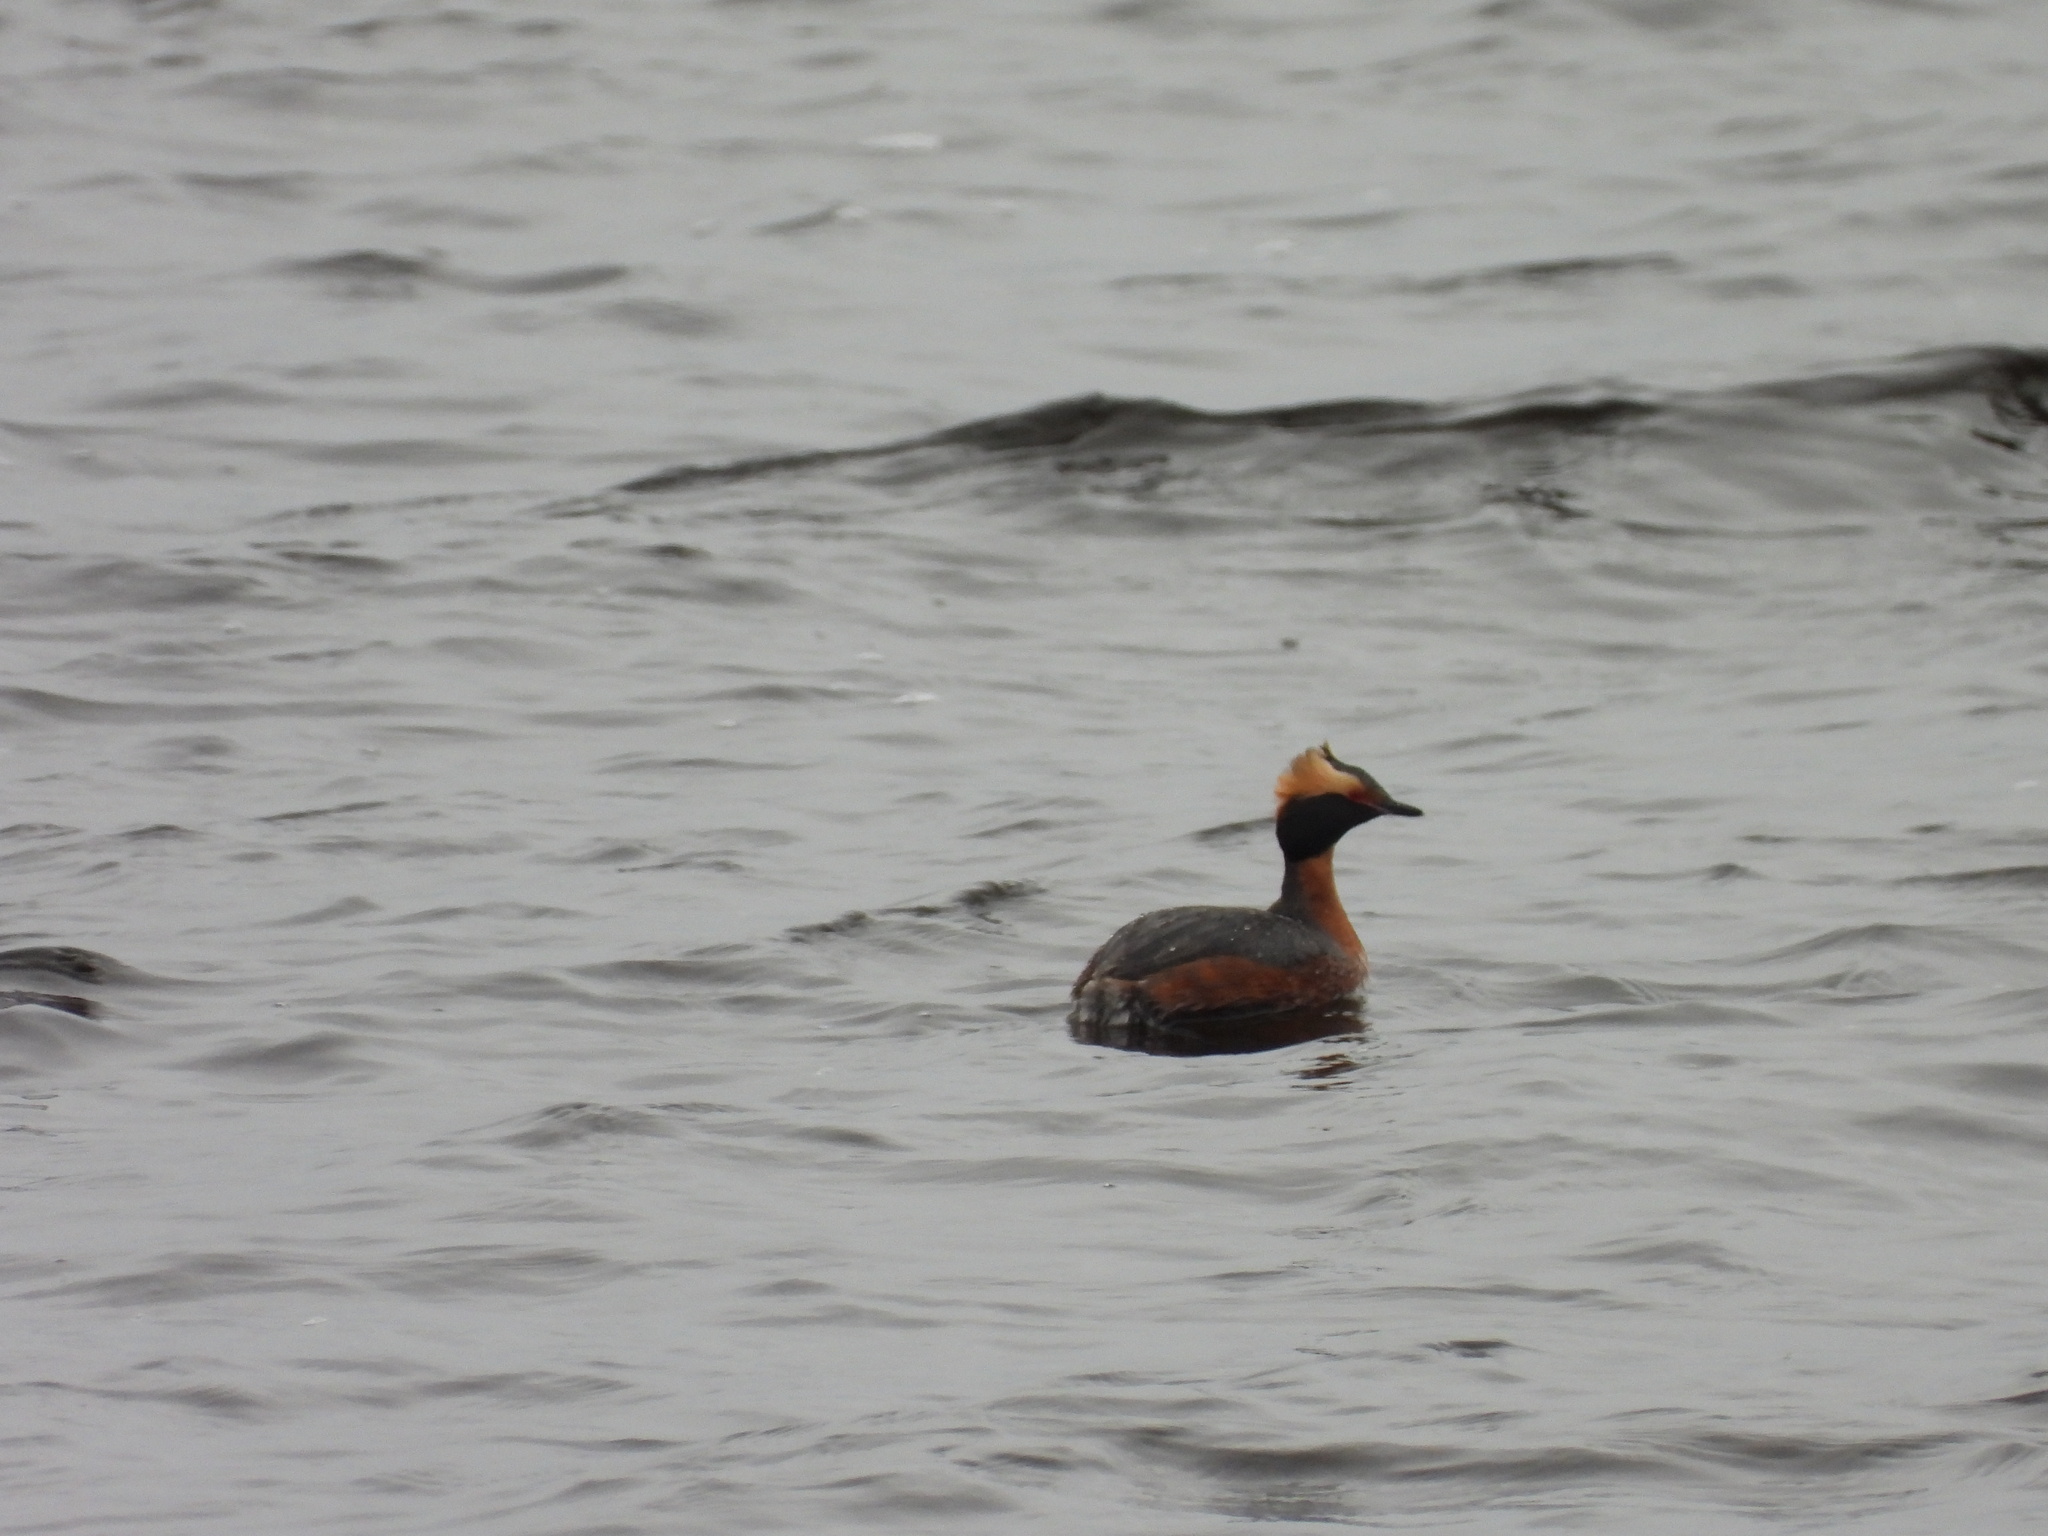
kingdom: Animalia
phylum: Chordata
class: Aves
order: Podicipediformes
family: Podicipedidae
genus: Podiceps
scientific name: Podiceps auritus
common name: Horned grebe
